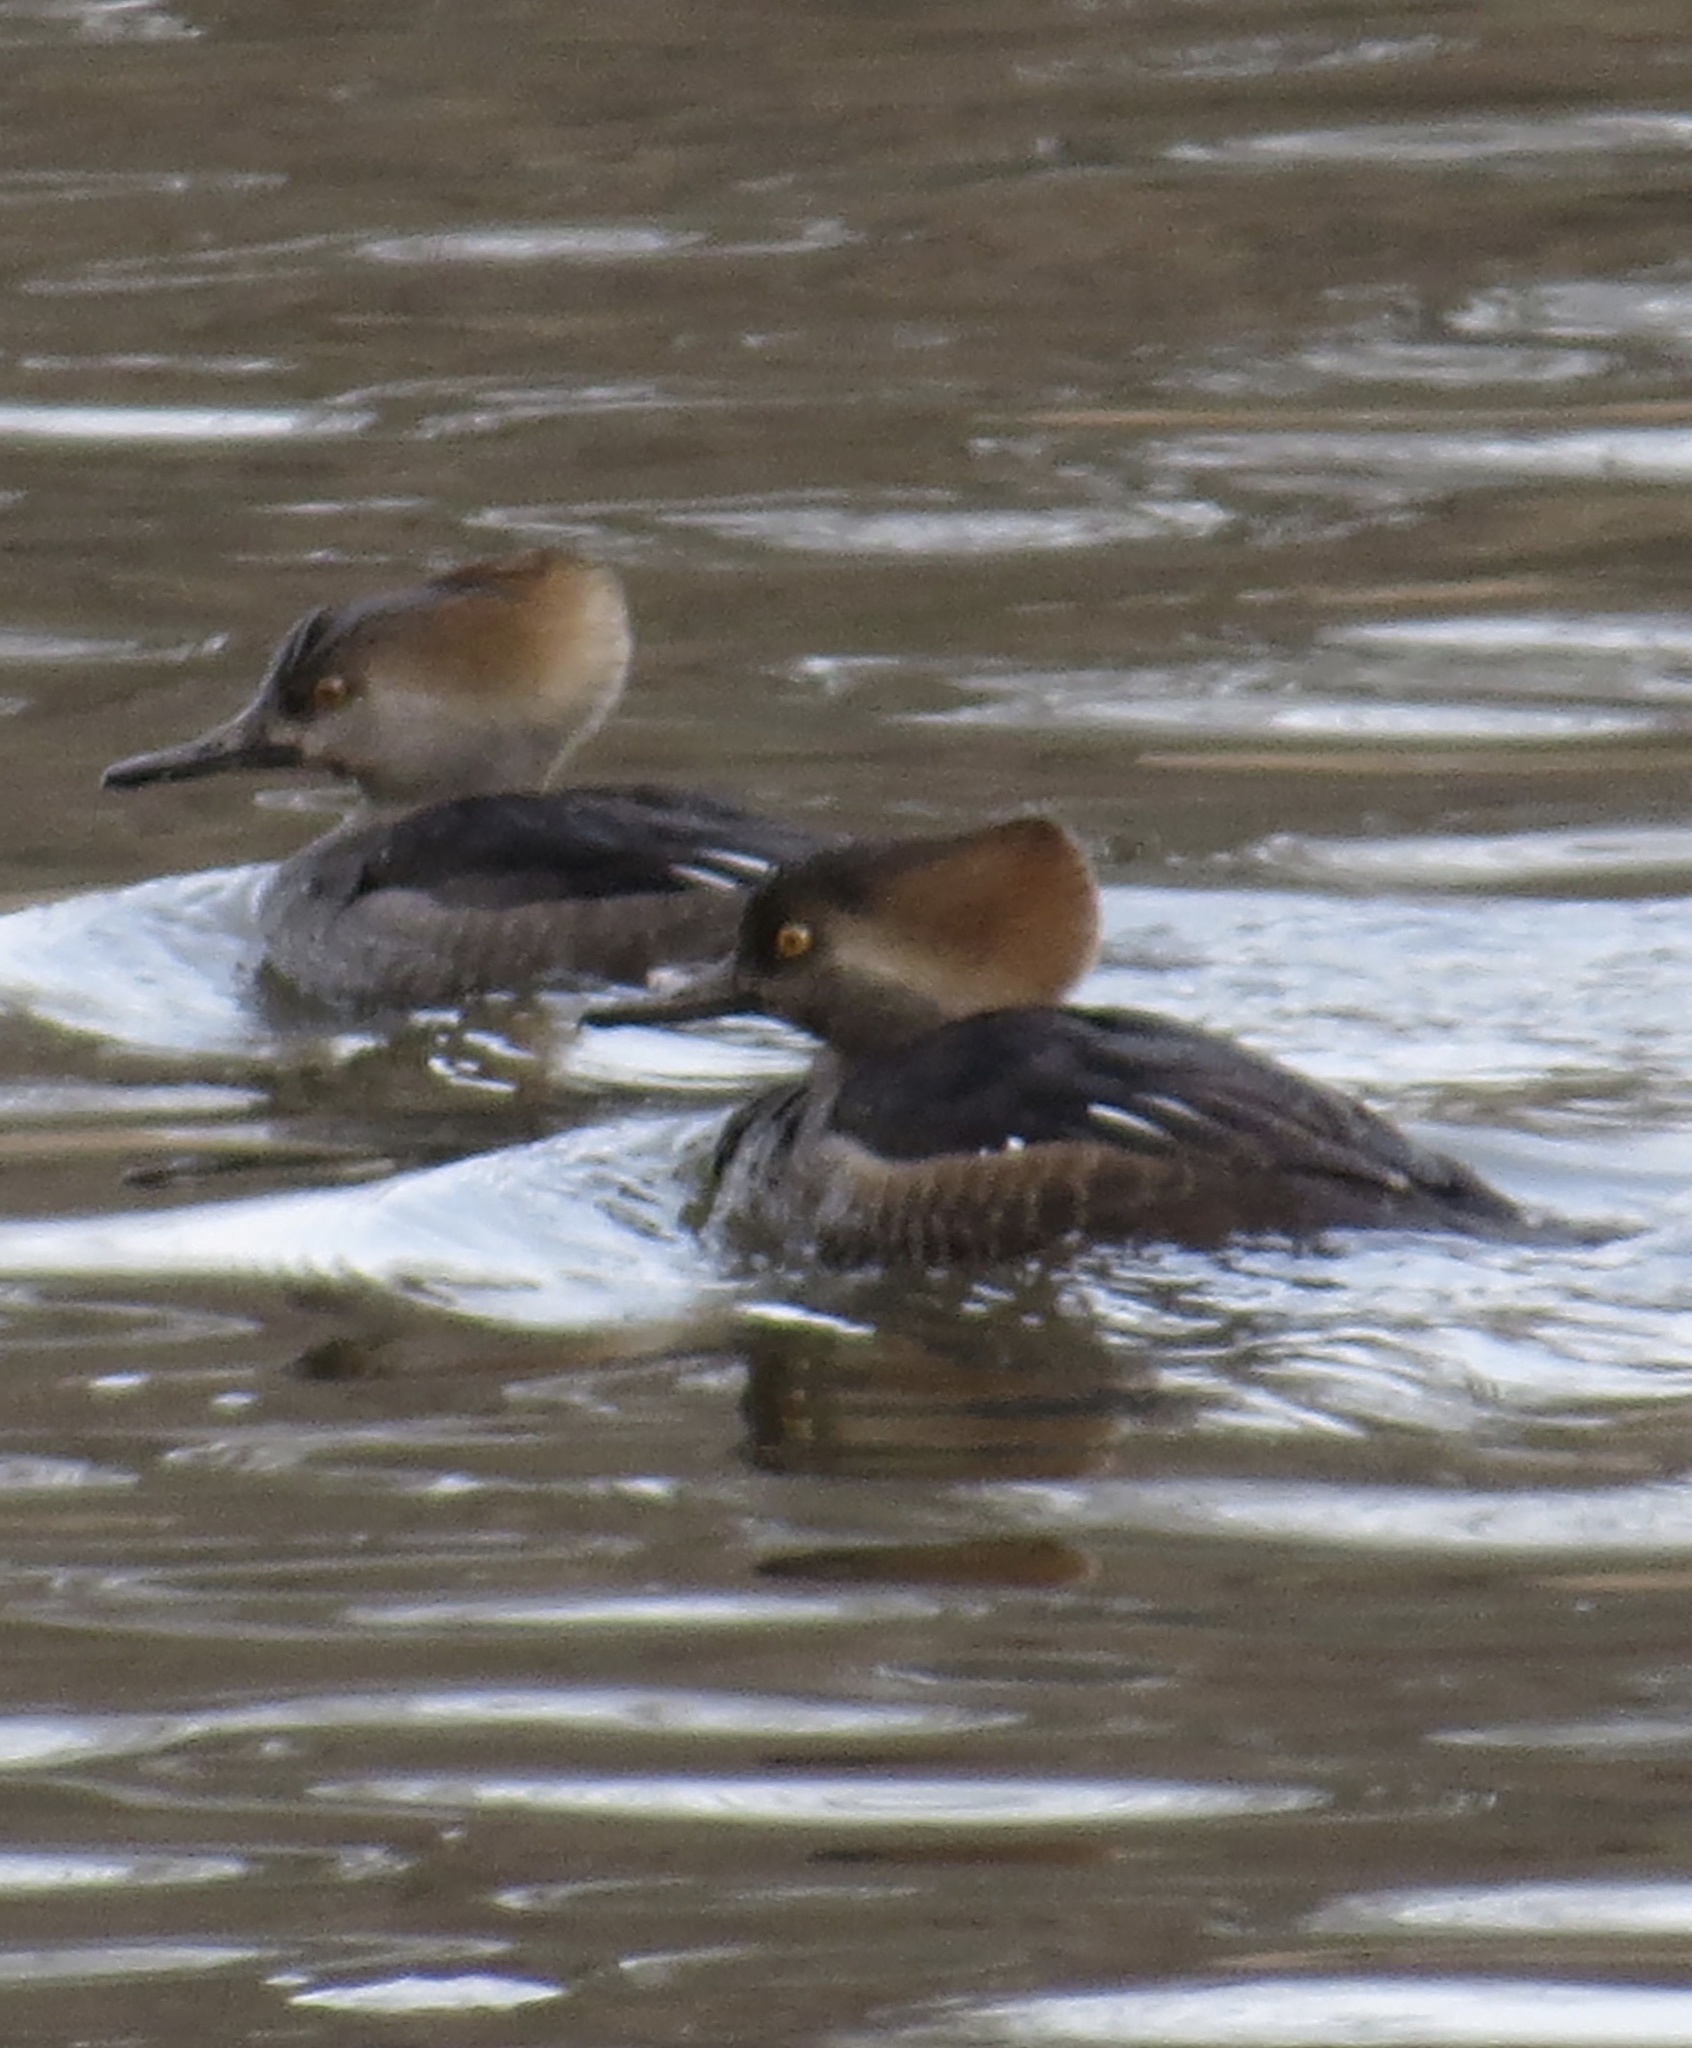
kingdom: Animalia
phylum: Chordata
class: Aves
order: Anseriformes
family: Anatidae
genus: Lophodytes
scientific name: Lophodytes cucullatus
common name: Hooded merganser
